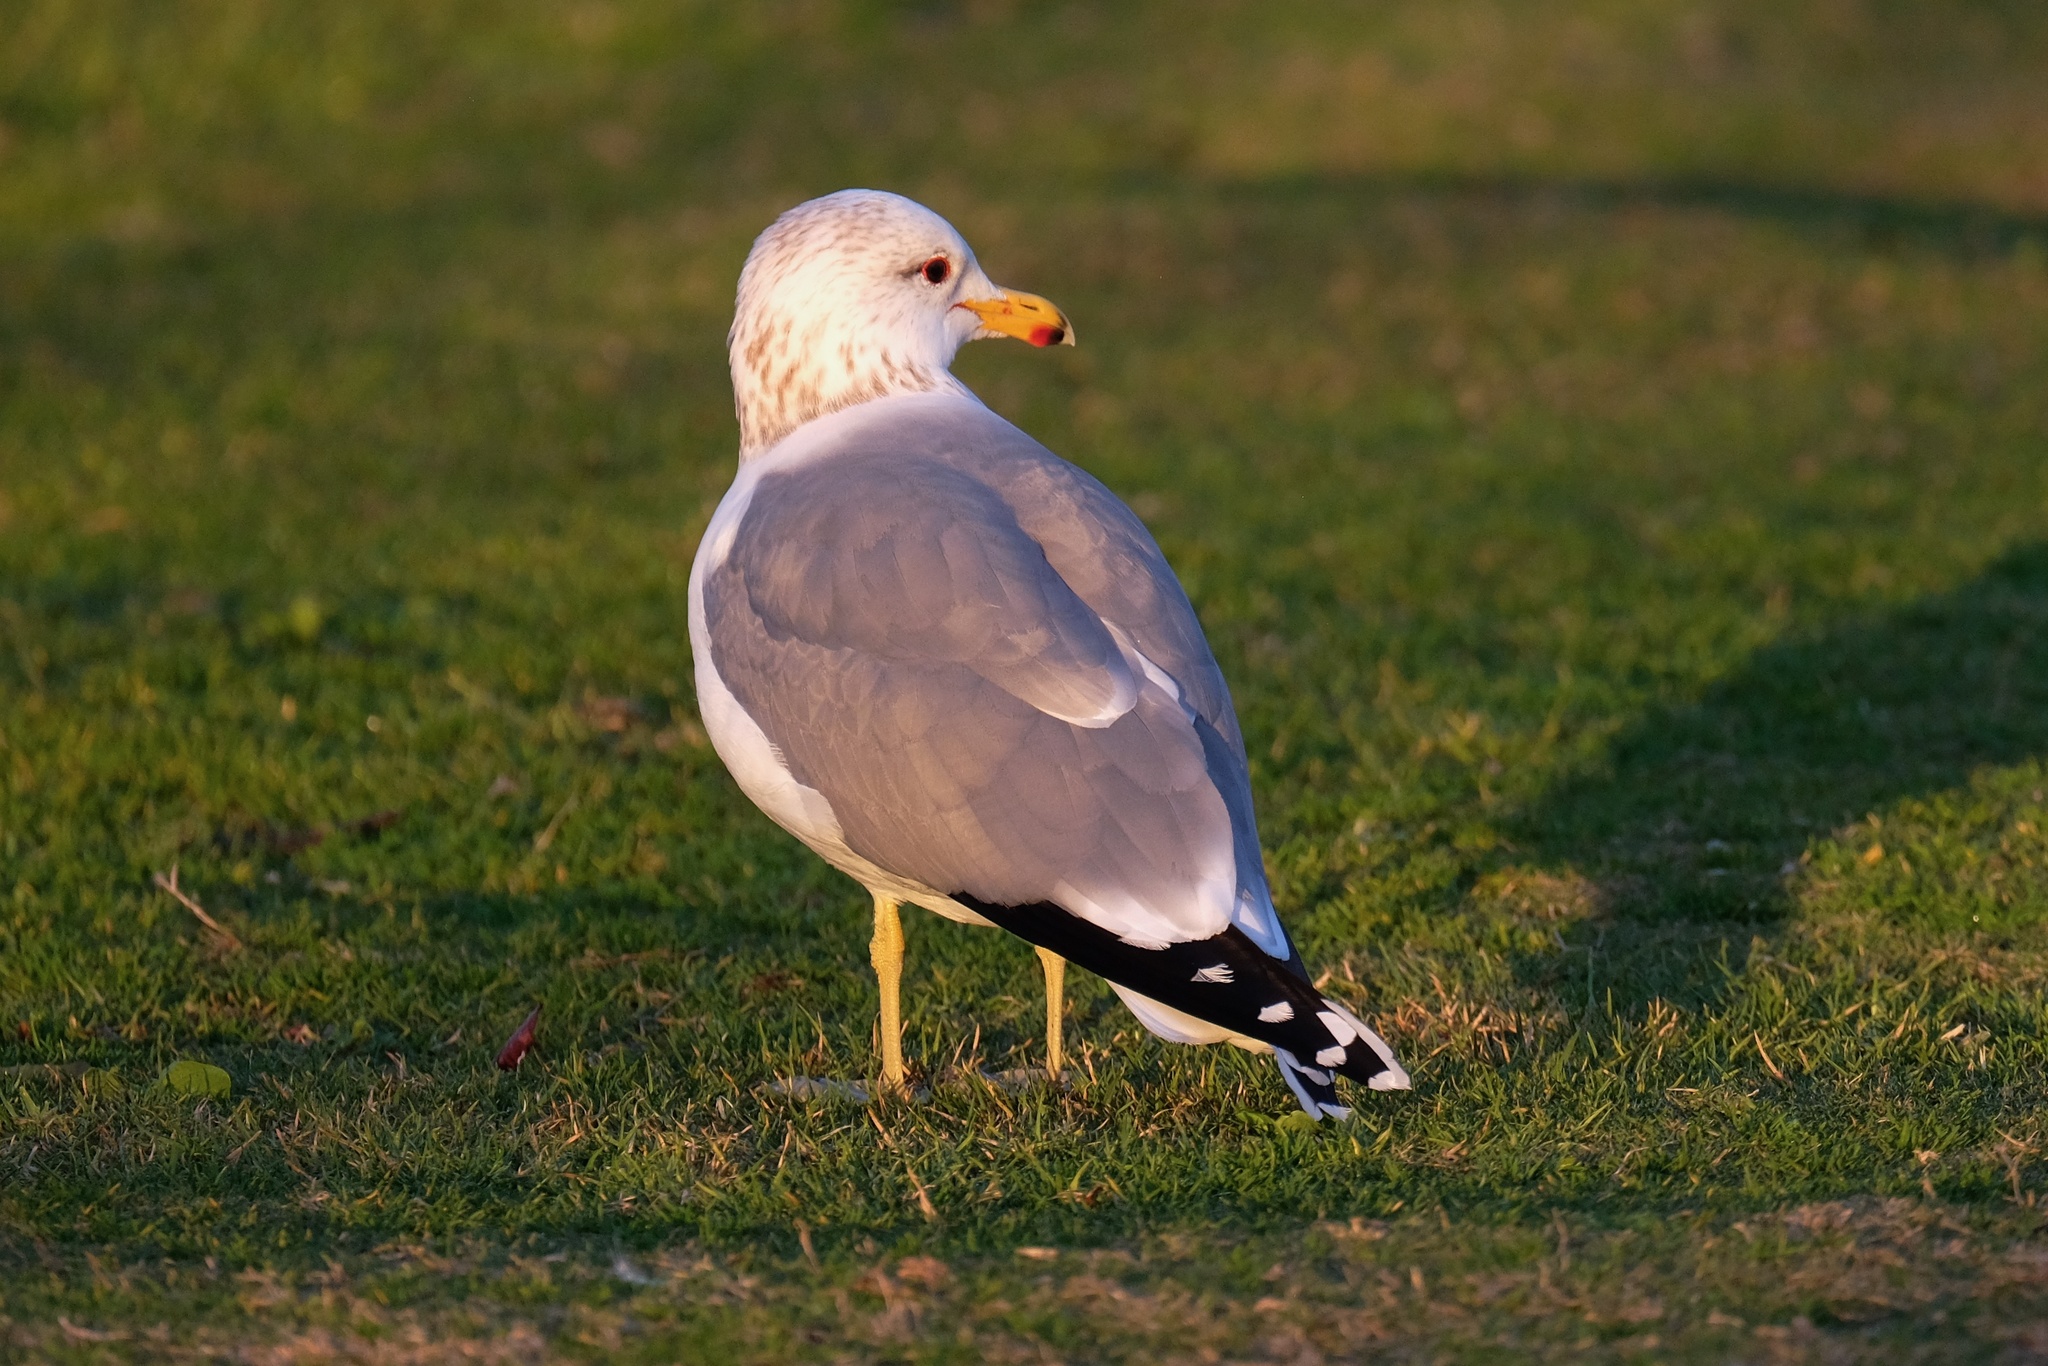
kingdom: Animalia
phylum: Chordata
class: Aves
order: Charadriiformes
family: Laridae
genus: Larus
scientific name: Larus californicus
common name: California gull
